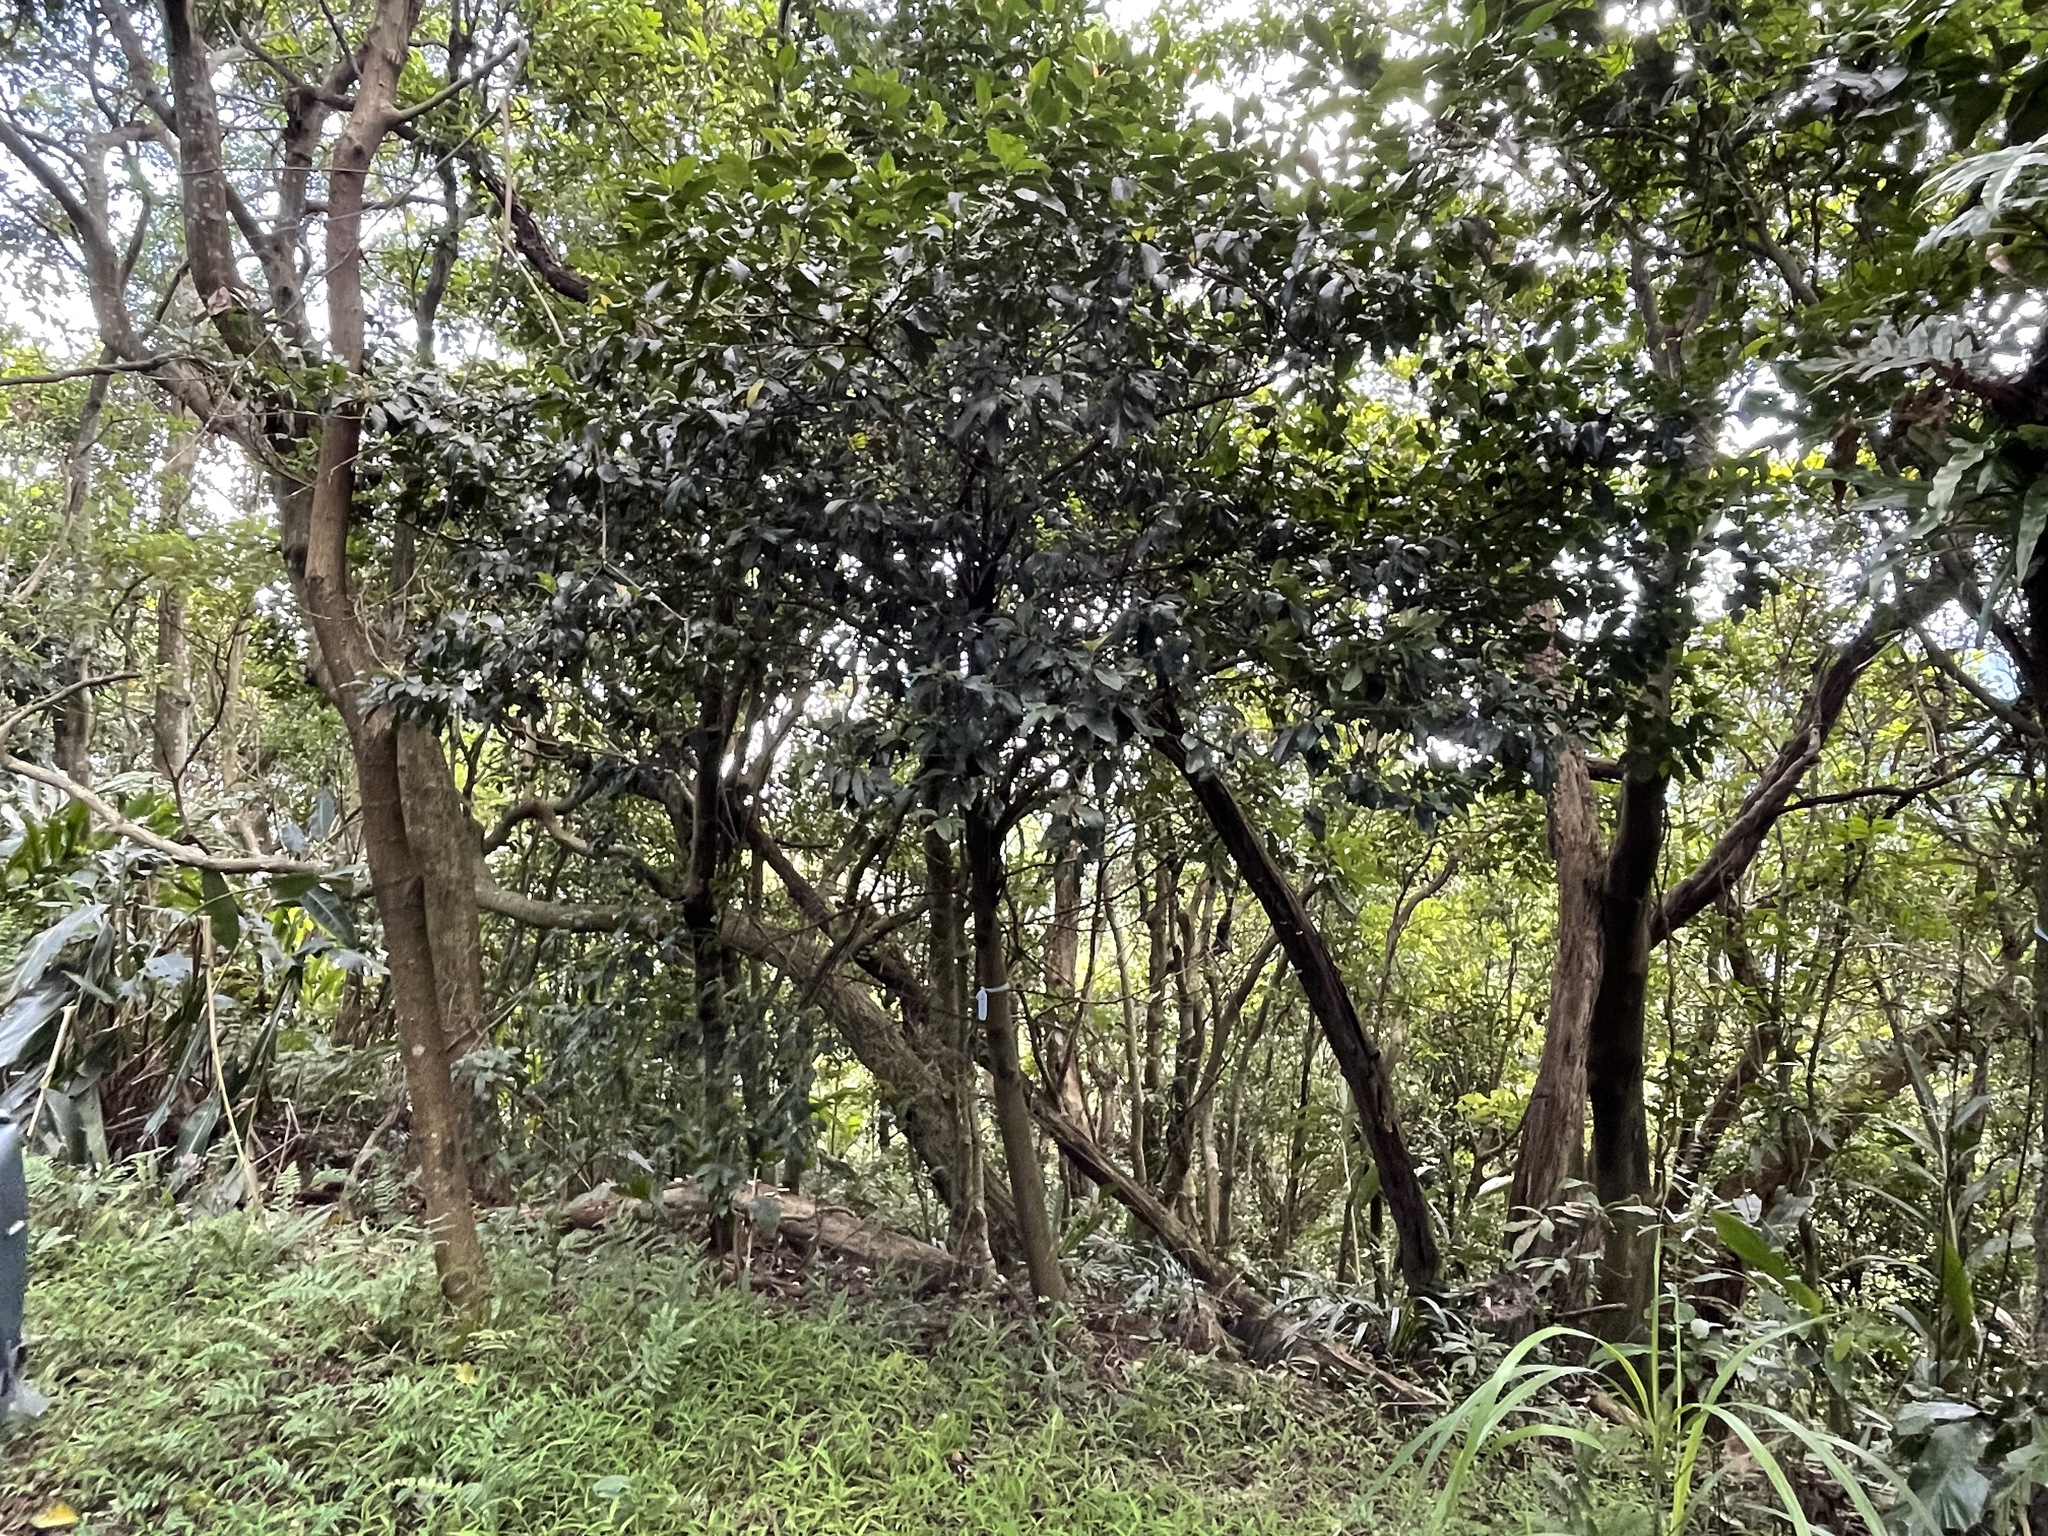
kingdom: Plantae
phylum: Tracheophyta
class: Magnoliopsida
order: Gentianales
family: Rubiaceae
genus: Aidia
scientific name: Aidia cochinchinensis
